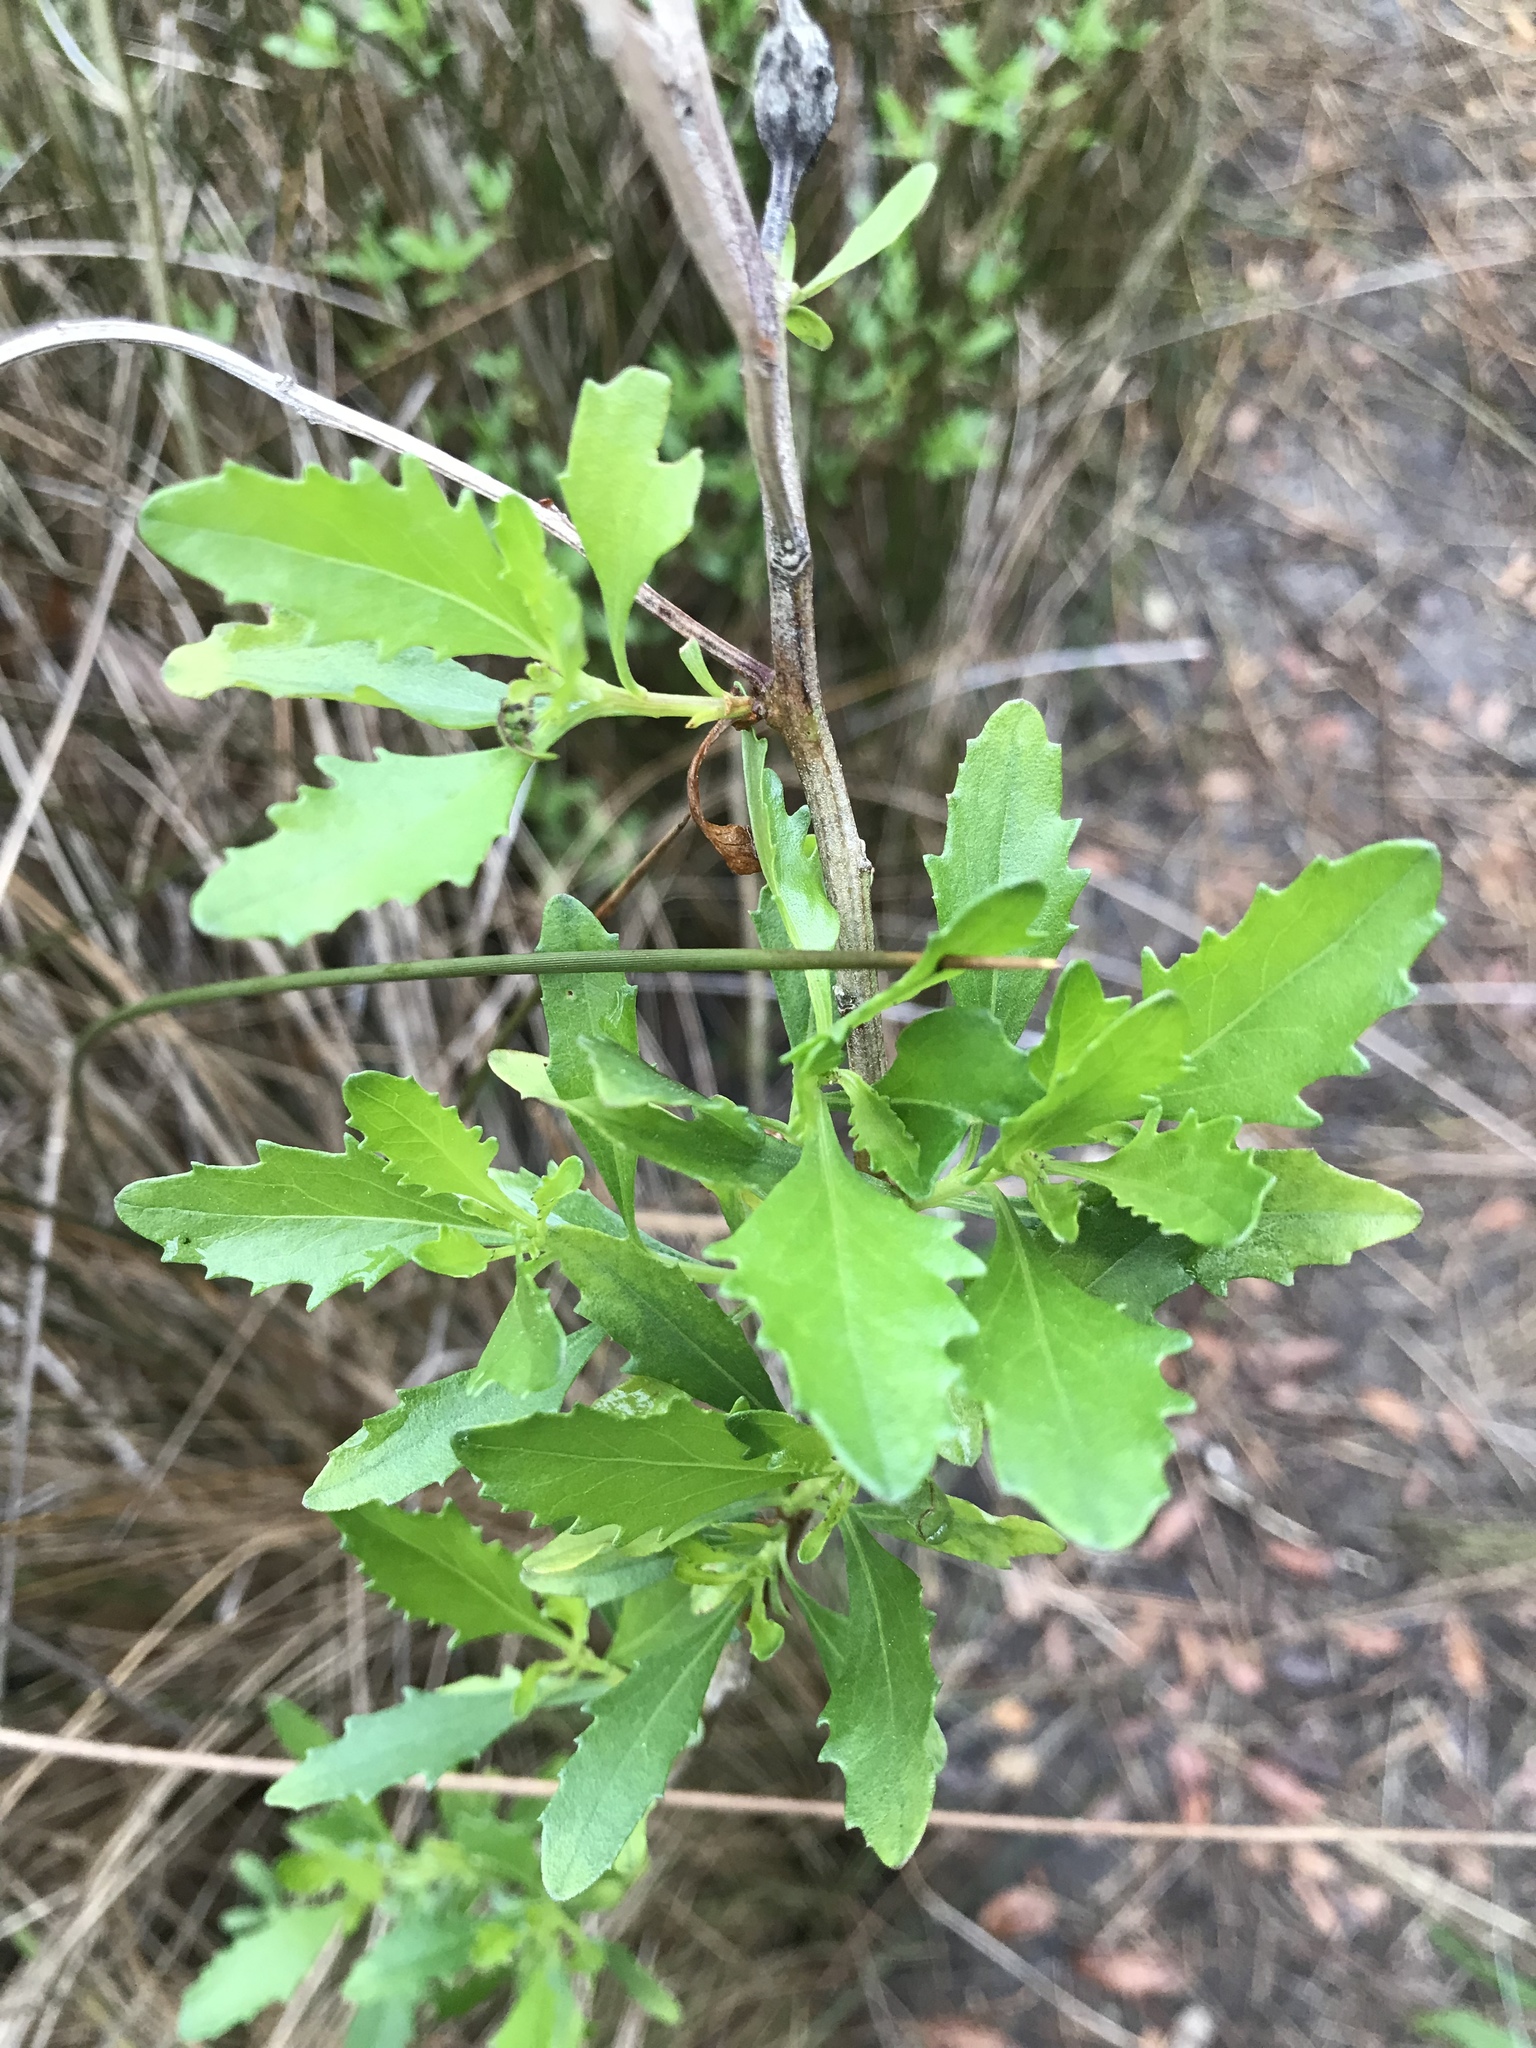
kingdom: Plantae
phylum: Tracheophyta
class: Magnoliopsida
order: Asterales
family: Asteraceae
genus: Baccharis
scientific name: Baccharis halimifolia
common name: Eastern baccharis
